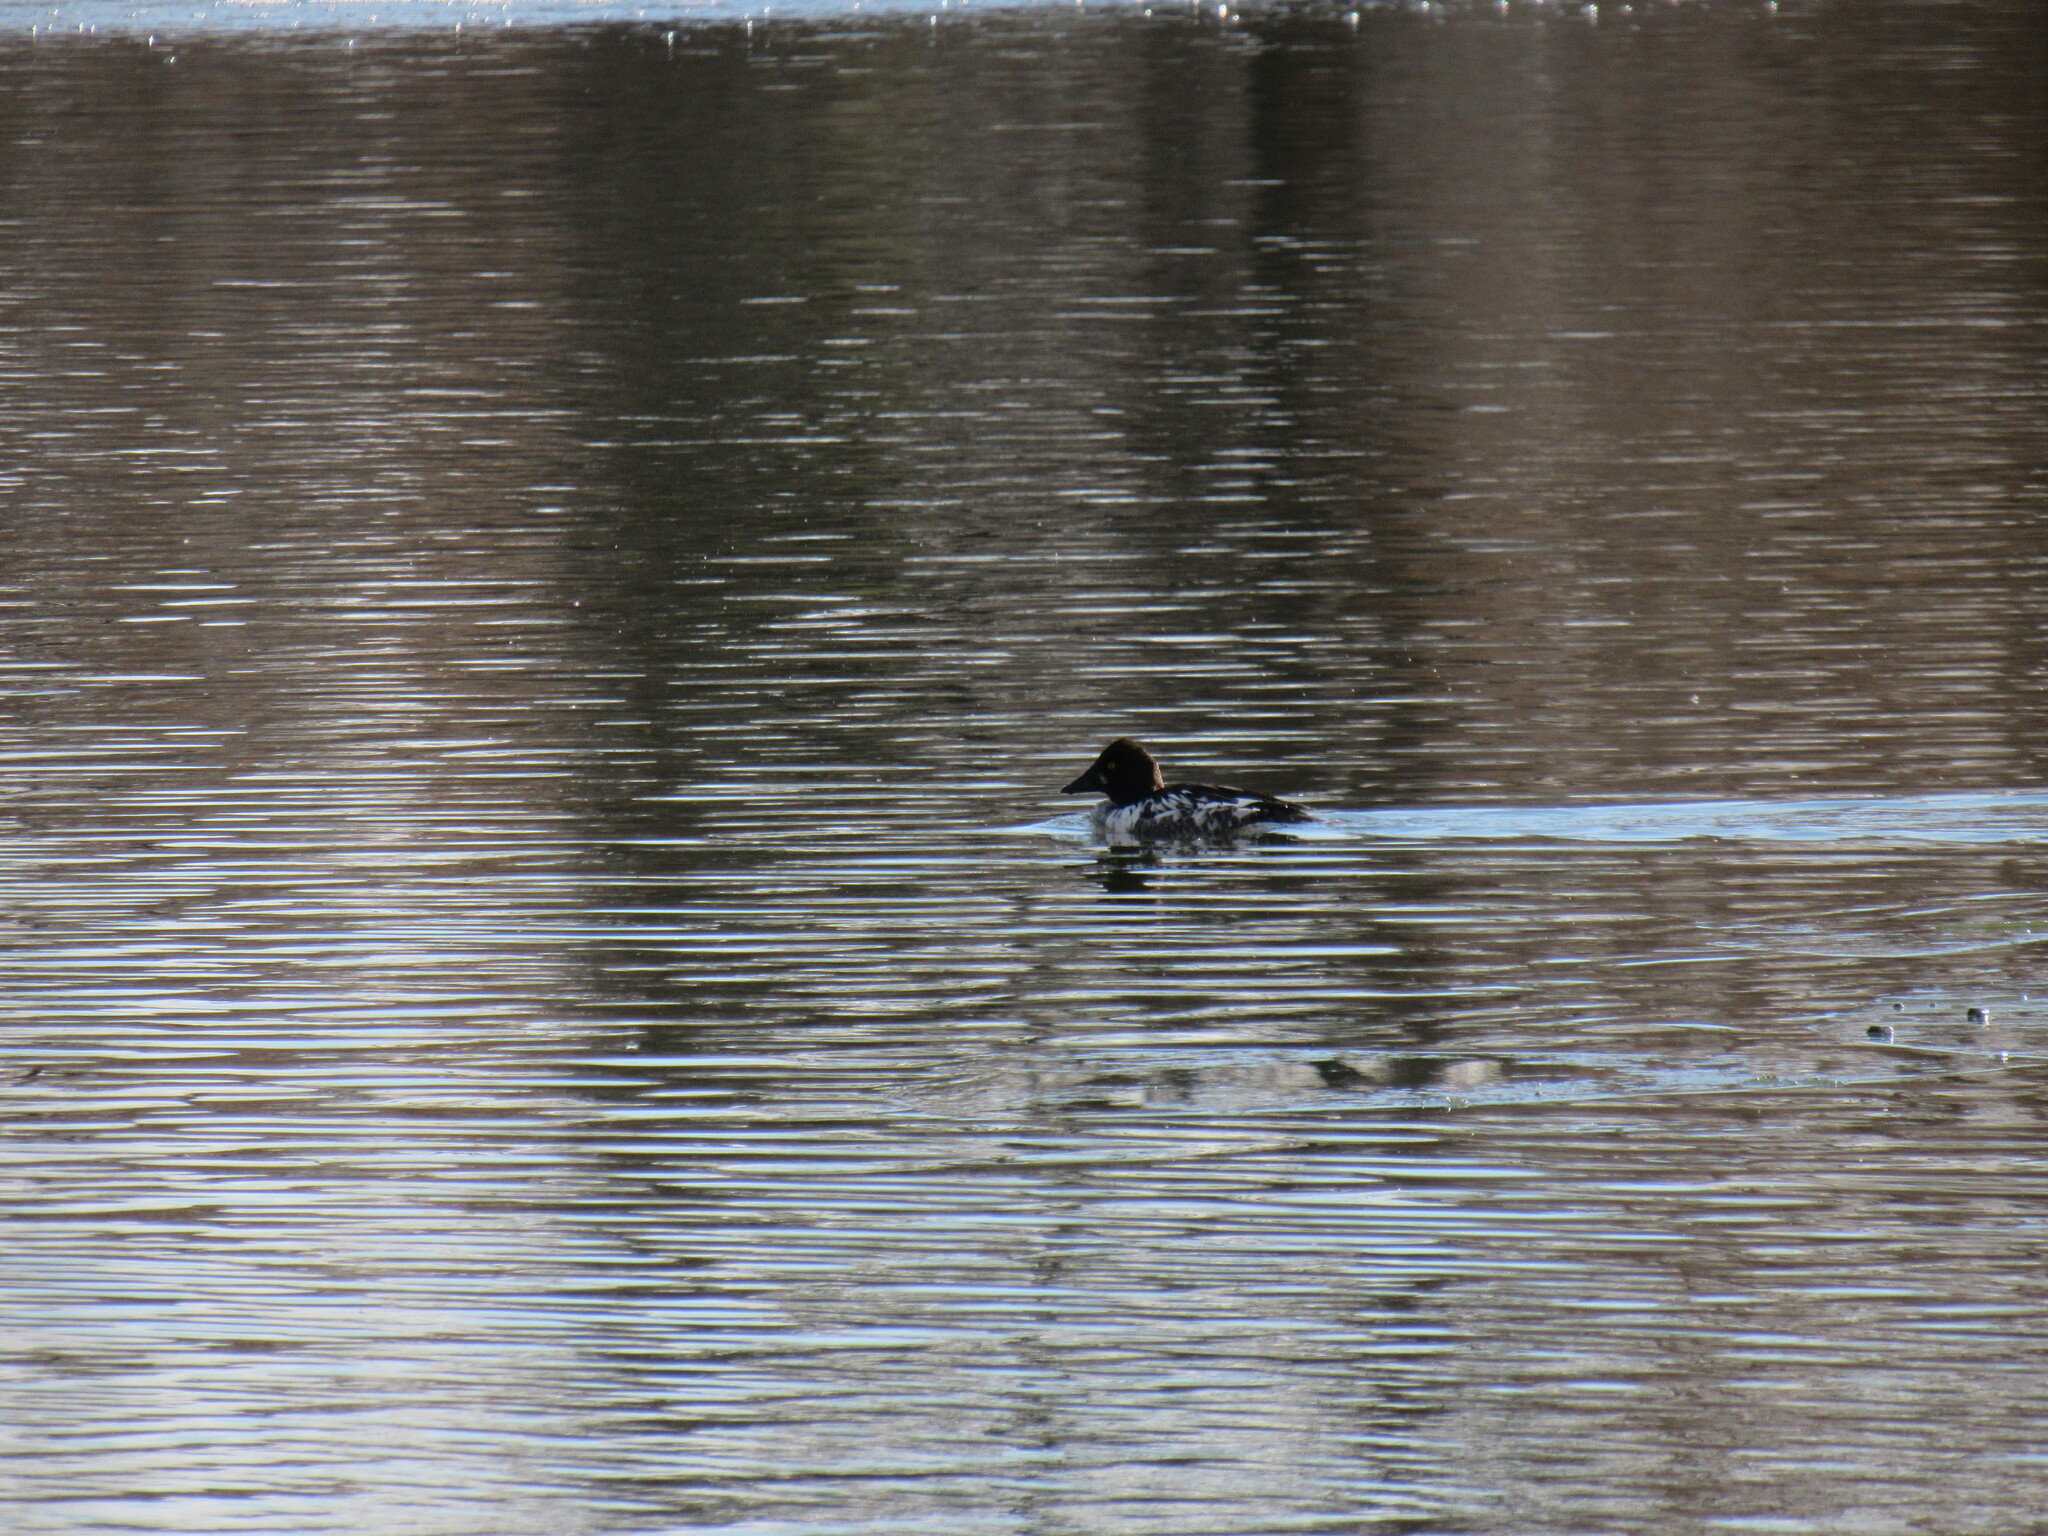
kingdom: Animalia
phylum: Chordata
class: Aves
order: Anseriformes
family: Anatidae
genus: Bucephala
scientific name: Bucephala clangula
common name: Common goldeneye
